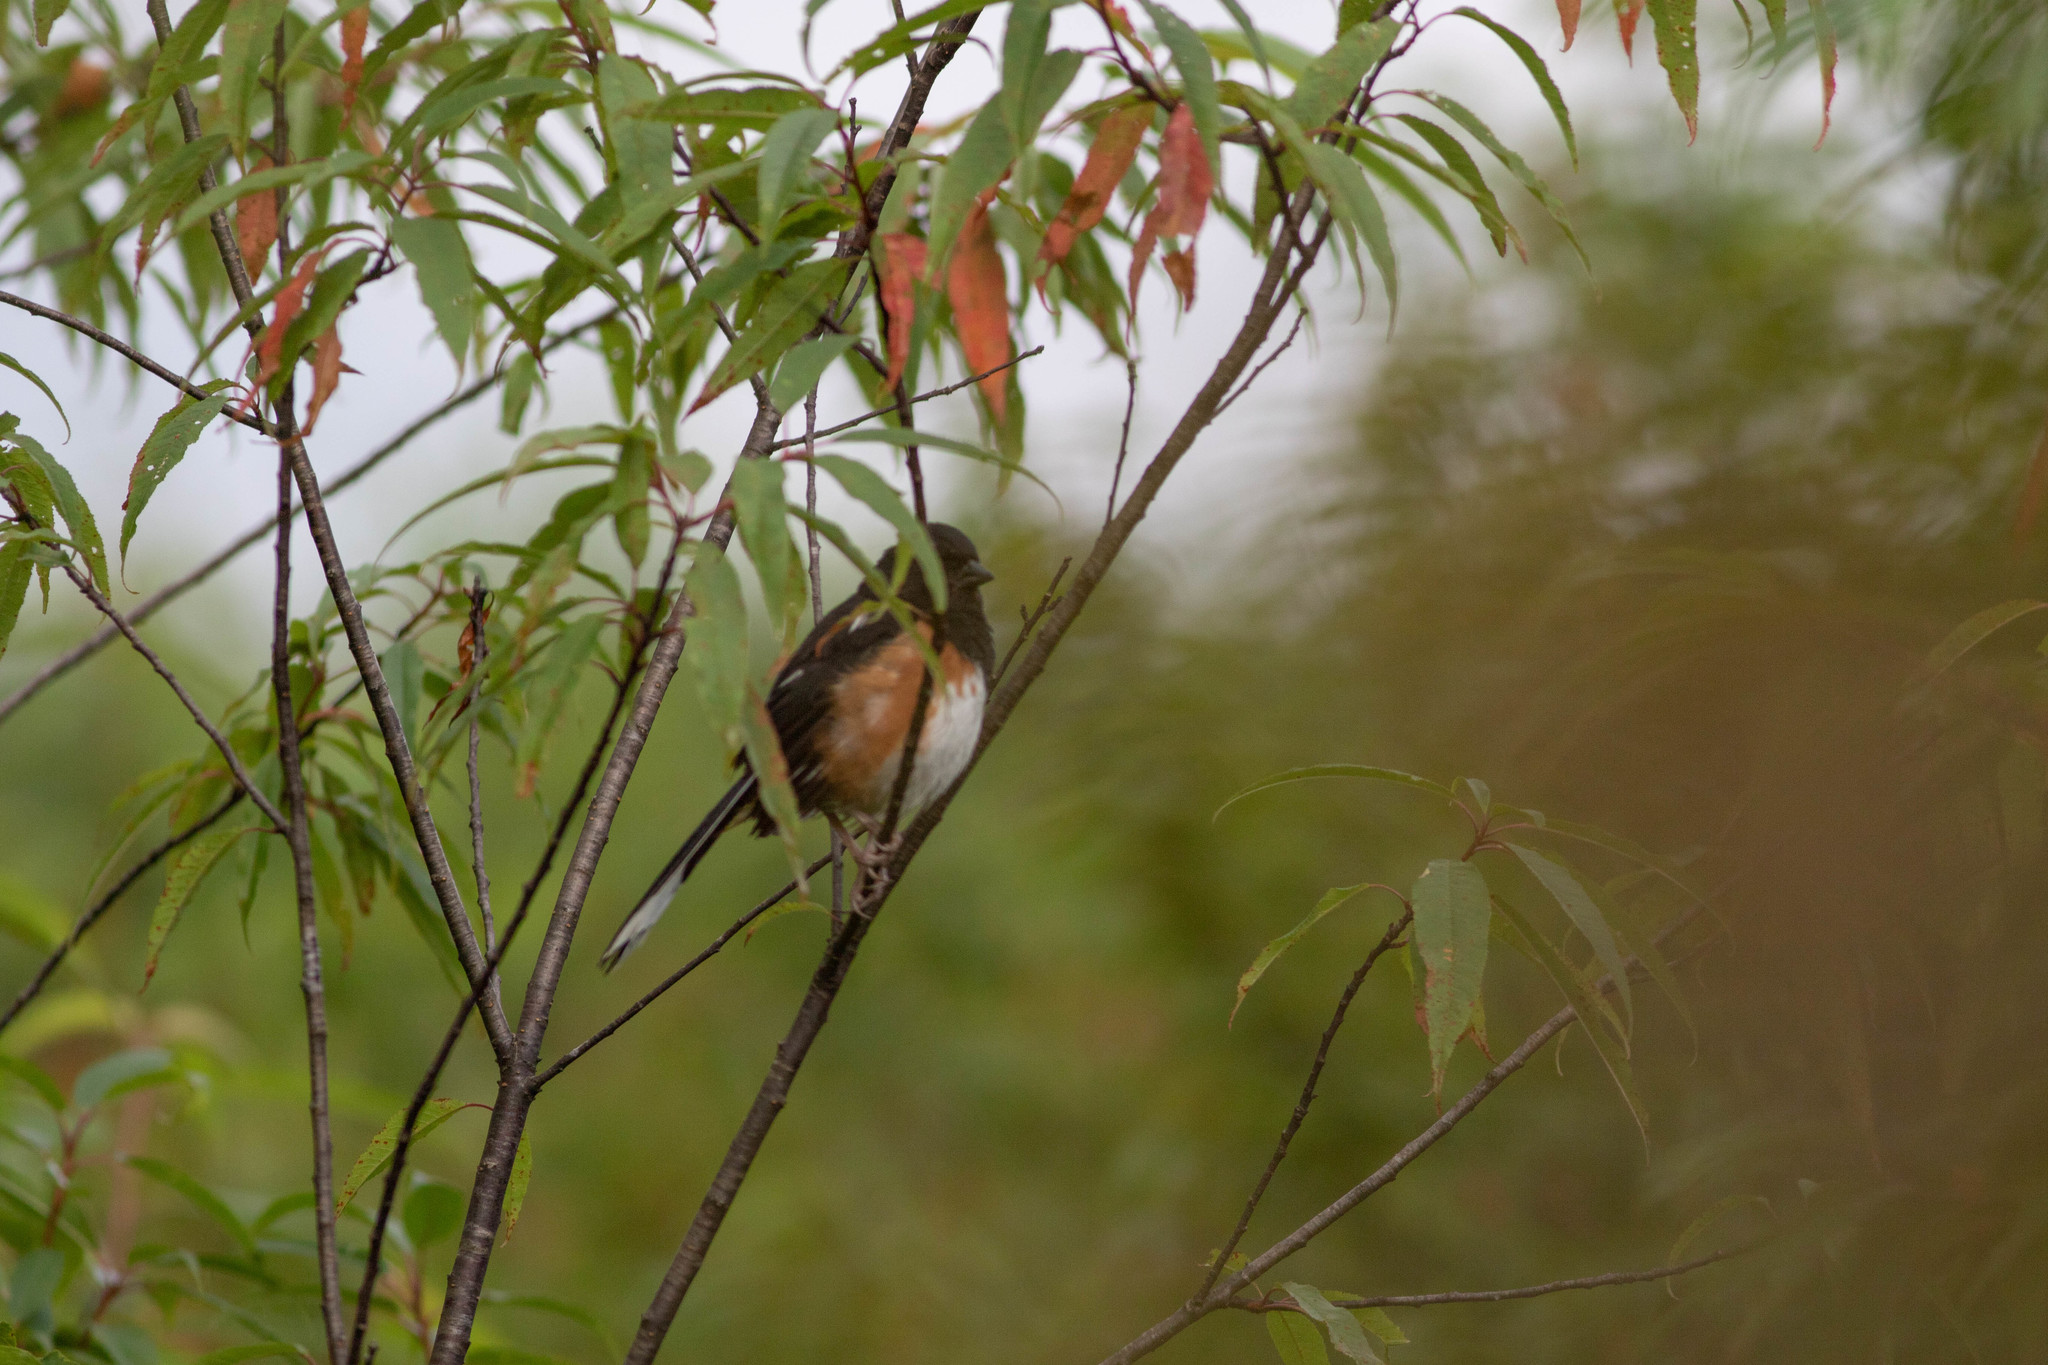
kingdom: Animalia
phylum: Chordata
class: Aves
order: Passeriformes
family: Passerellidae
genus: Pipilo
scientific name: Pipilo erythrophthalmus
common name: Eastern towhee
